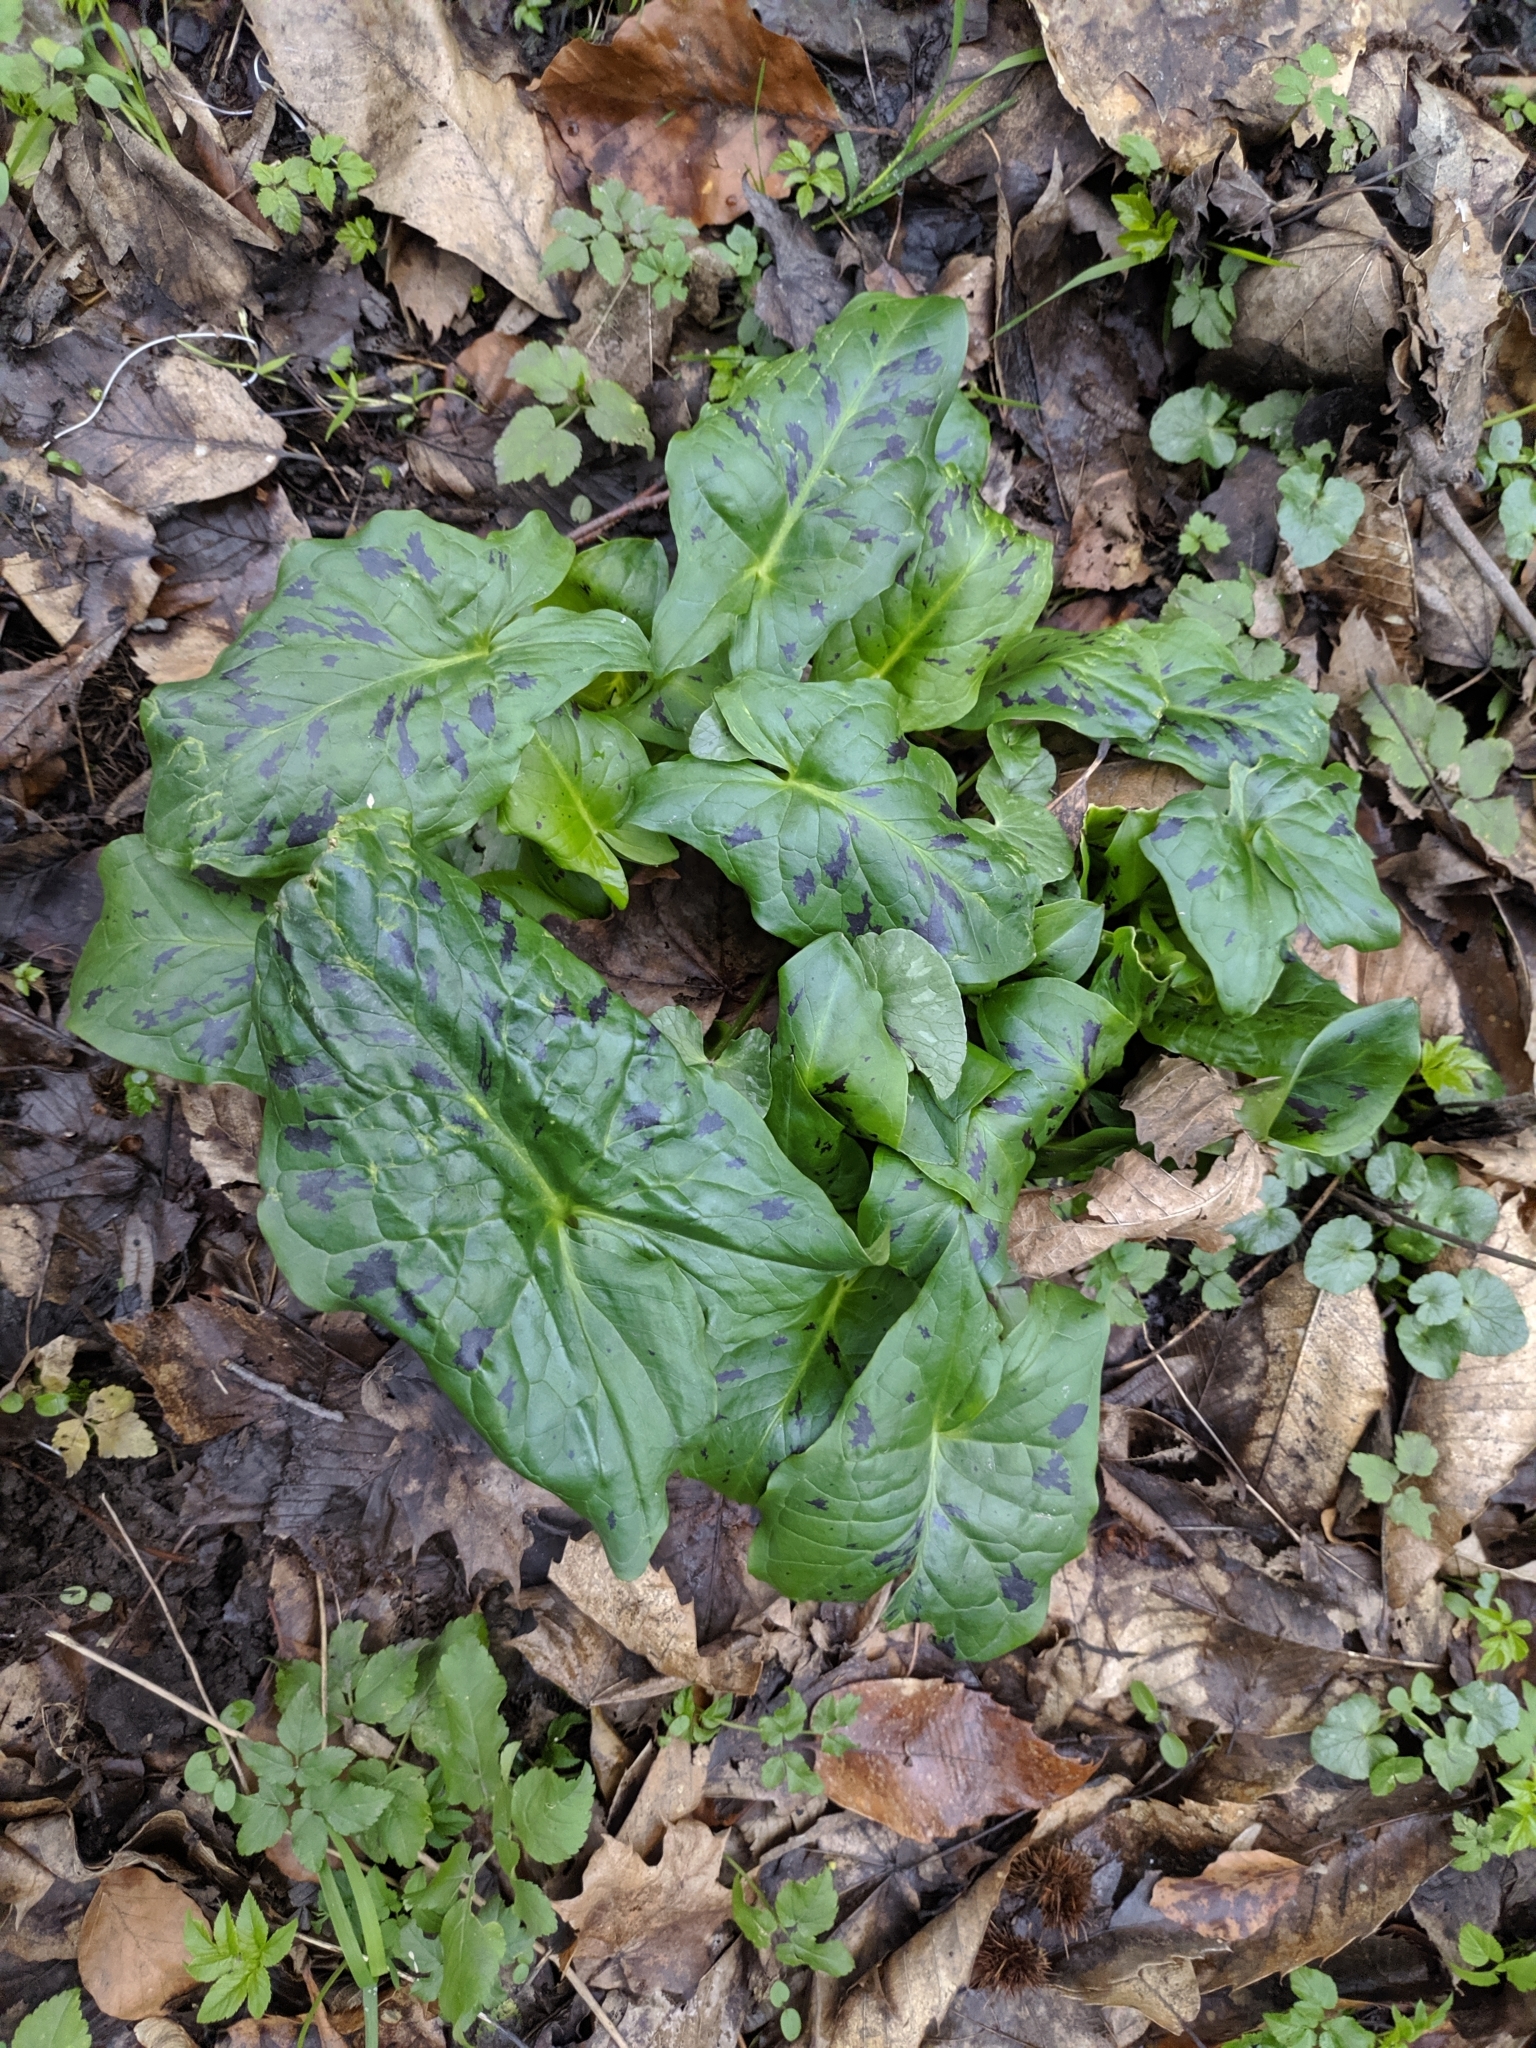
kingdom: Plantae
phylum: Tracheophyta
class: Liliopsida
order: Alismatales
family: Araceae
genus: Arum
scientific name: Arum maculatum
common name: Lords-and-ladies
